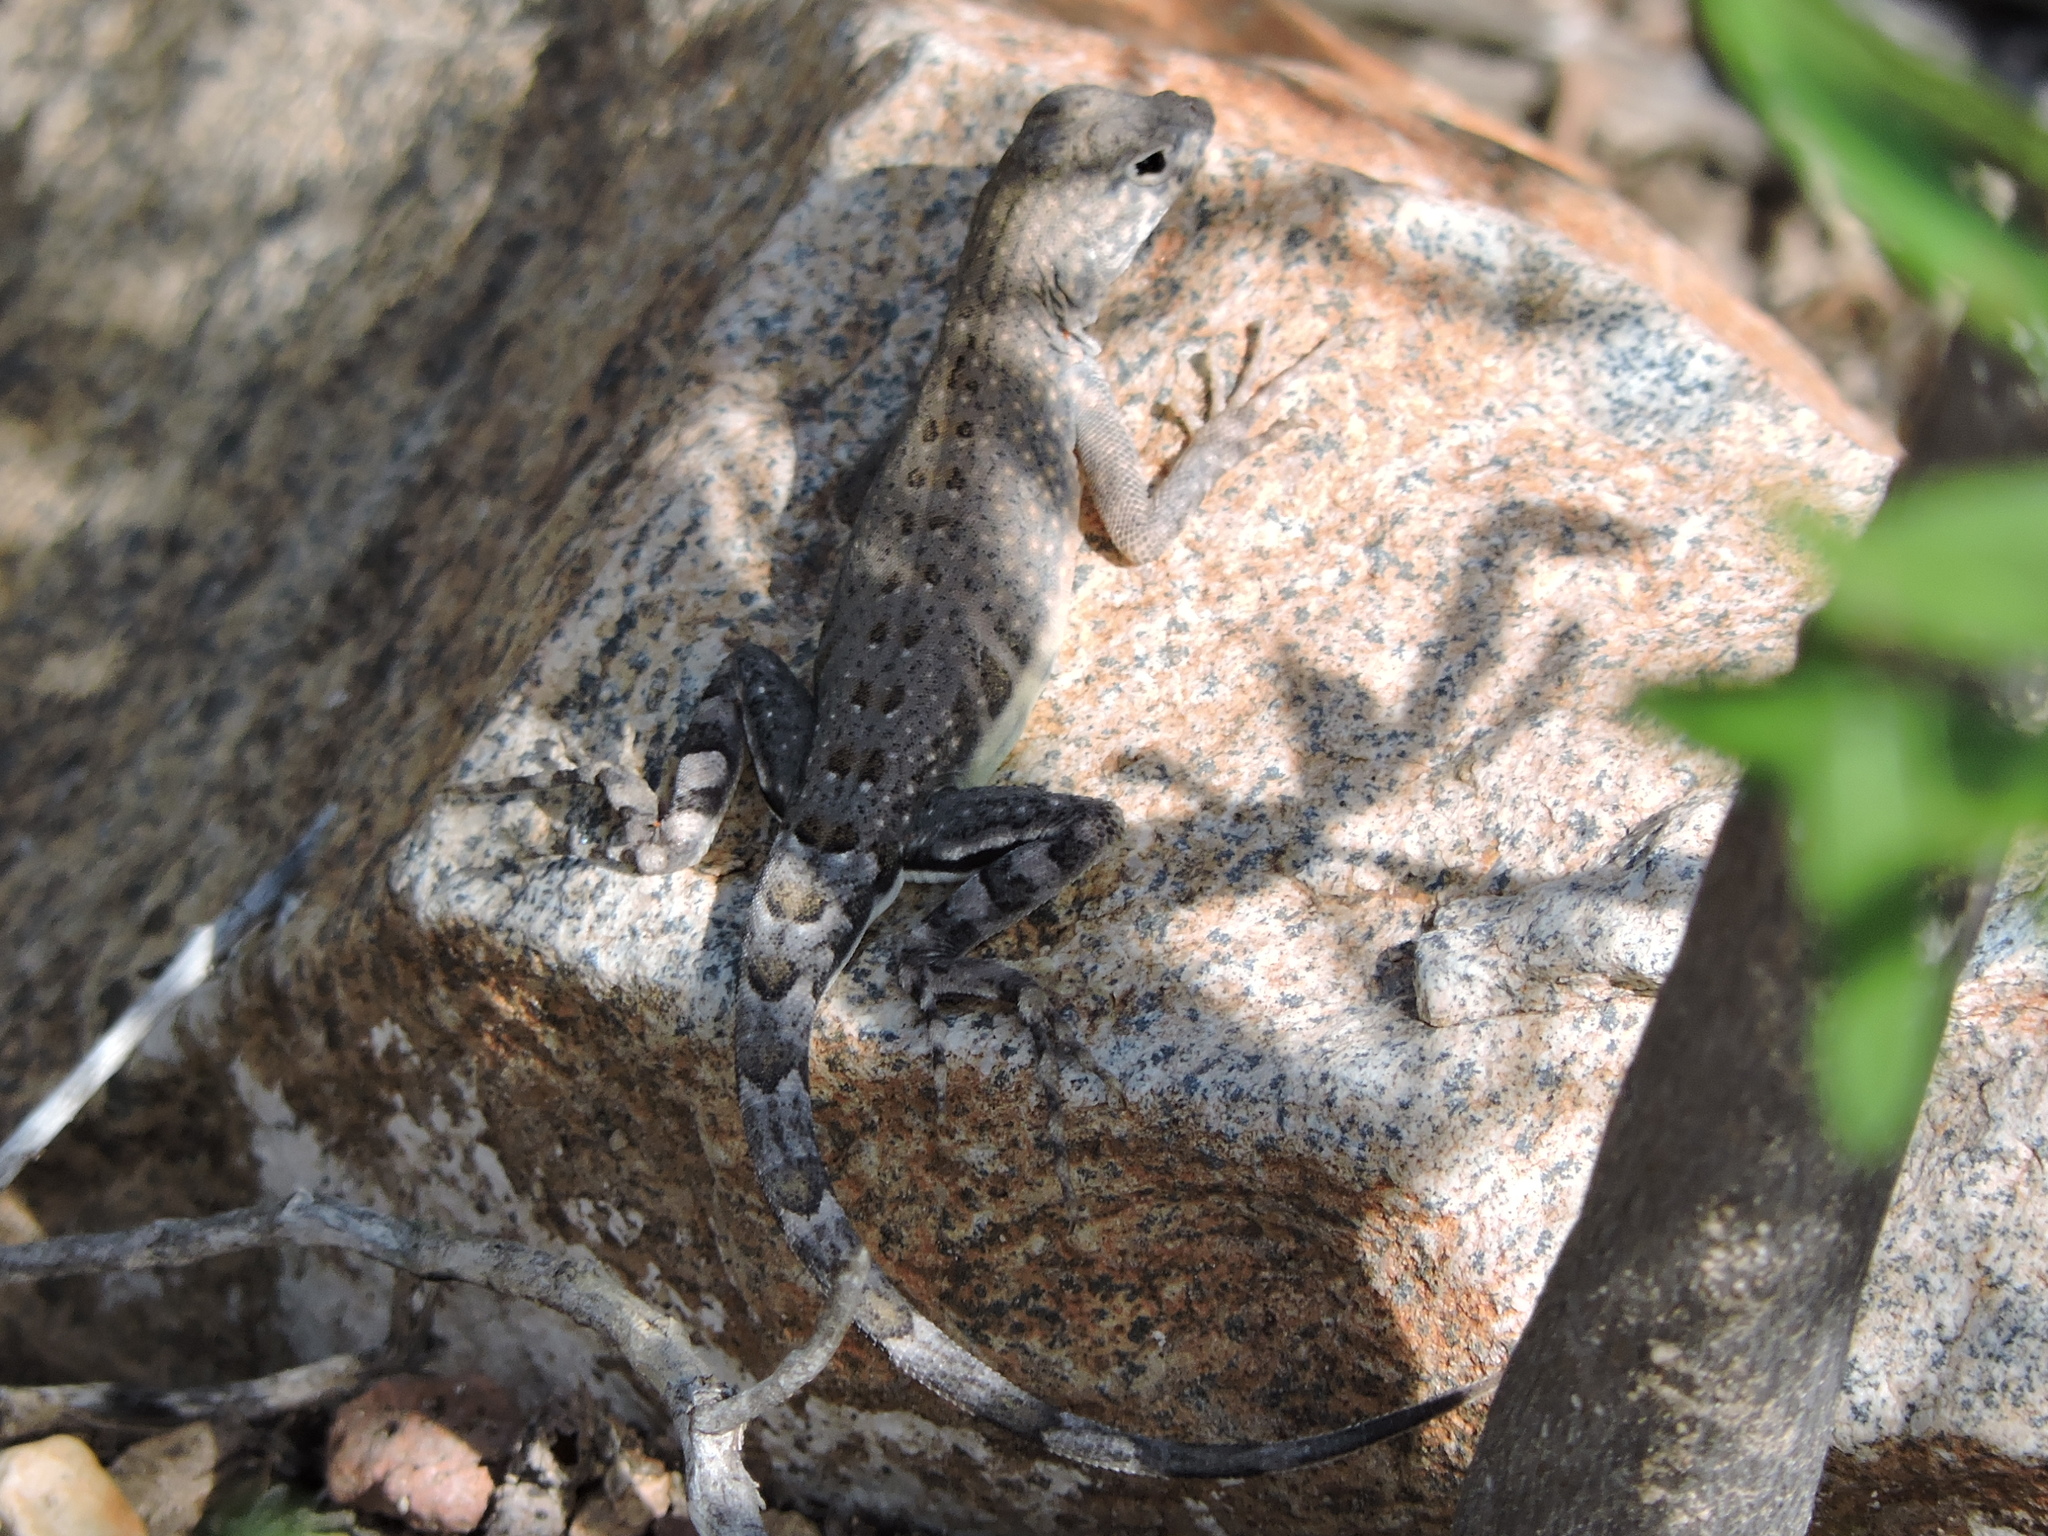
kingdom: Animalia
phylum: Chordata
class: Squamata
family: Phrynosomatidae
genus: Cophosaurus
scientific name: Cophosaurus texanus
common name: Greater earless lizard
